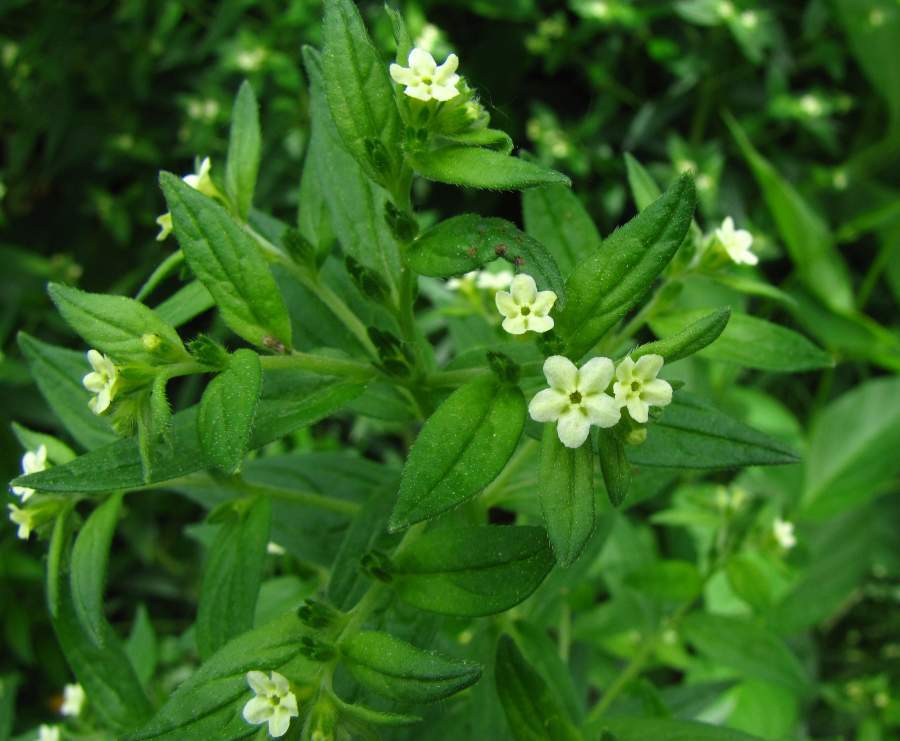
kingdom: Plantae
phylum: Tracheophyta
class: Magnoliopsida
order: Boraginales
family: Boraginaceae
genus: Buglossoides
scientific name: Buglossoides arvensis
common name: Corn gromwell
